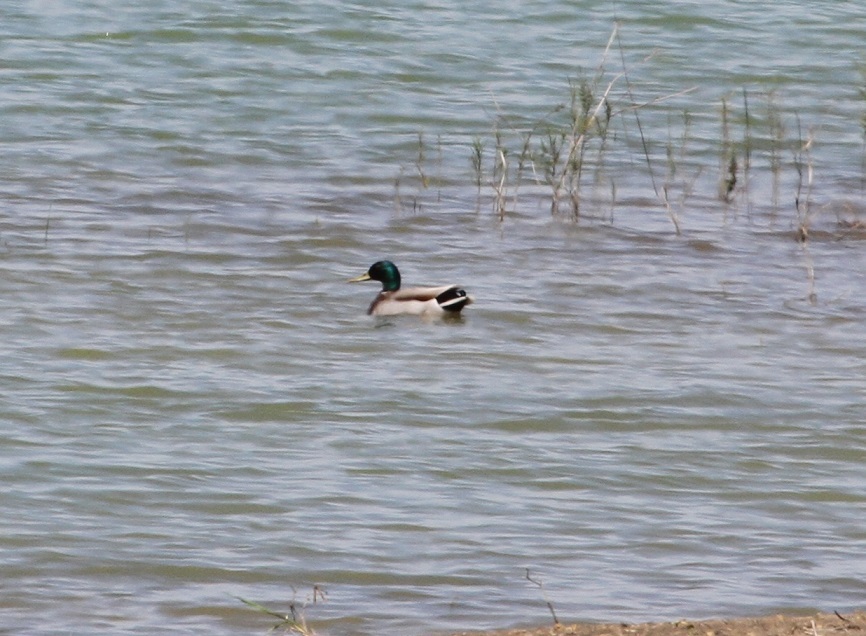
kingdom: Animalia
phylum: Chordata
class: Aves
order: Anseriformes
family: Anatidae
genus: Anas
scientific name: Anas platyrhynchos
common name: Mallard
